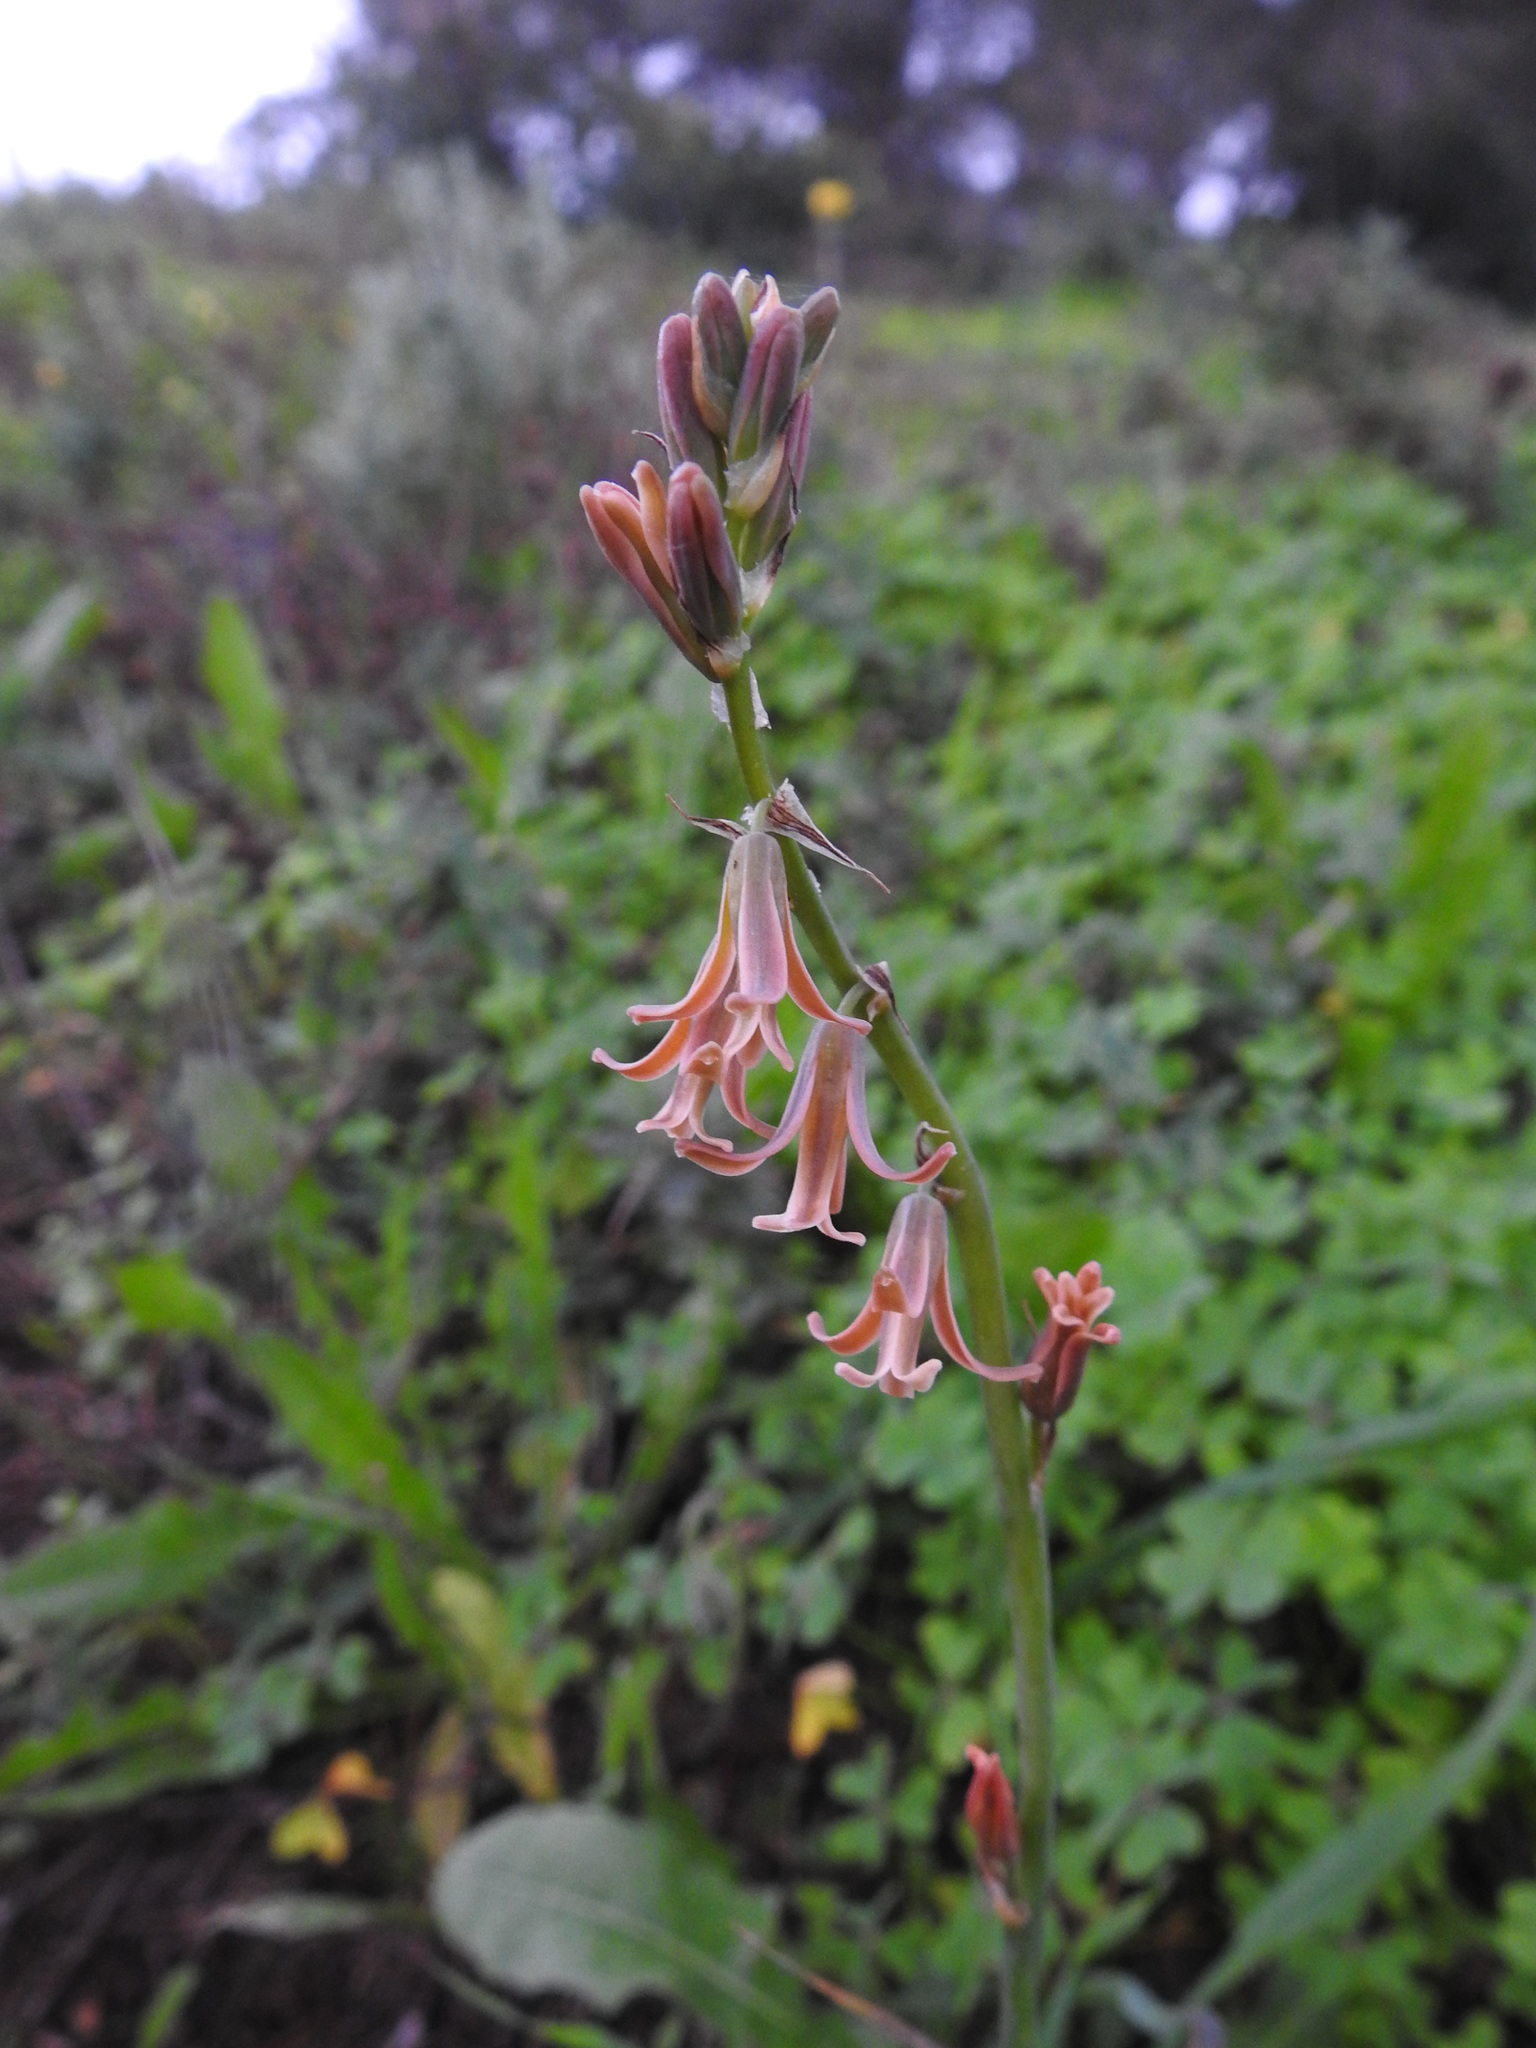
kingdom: Plantae
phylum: Tracheophyta
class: Liliopsida
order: Asparagales
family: Asparagaceae
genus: Dipcadi
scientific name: Dipcadi serotinum
